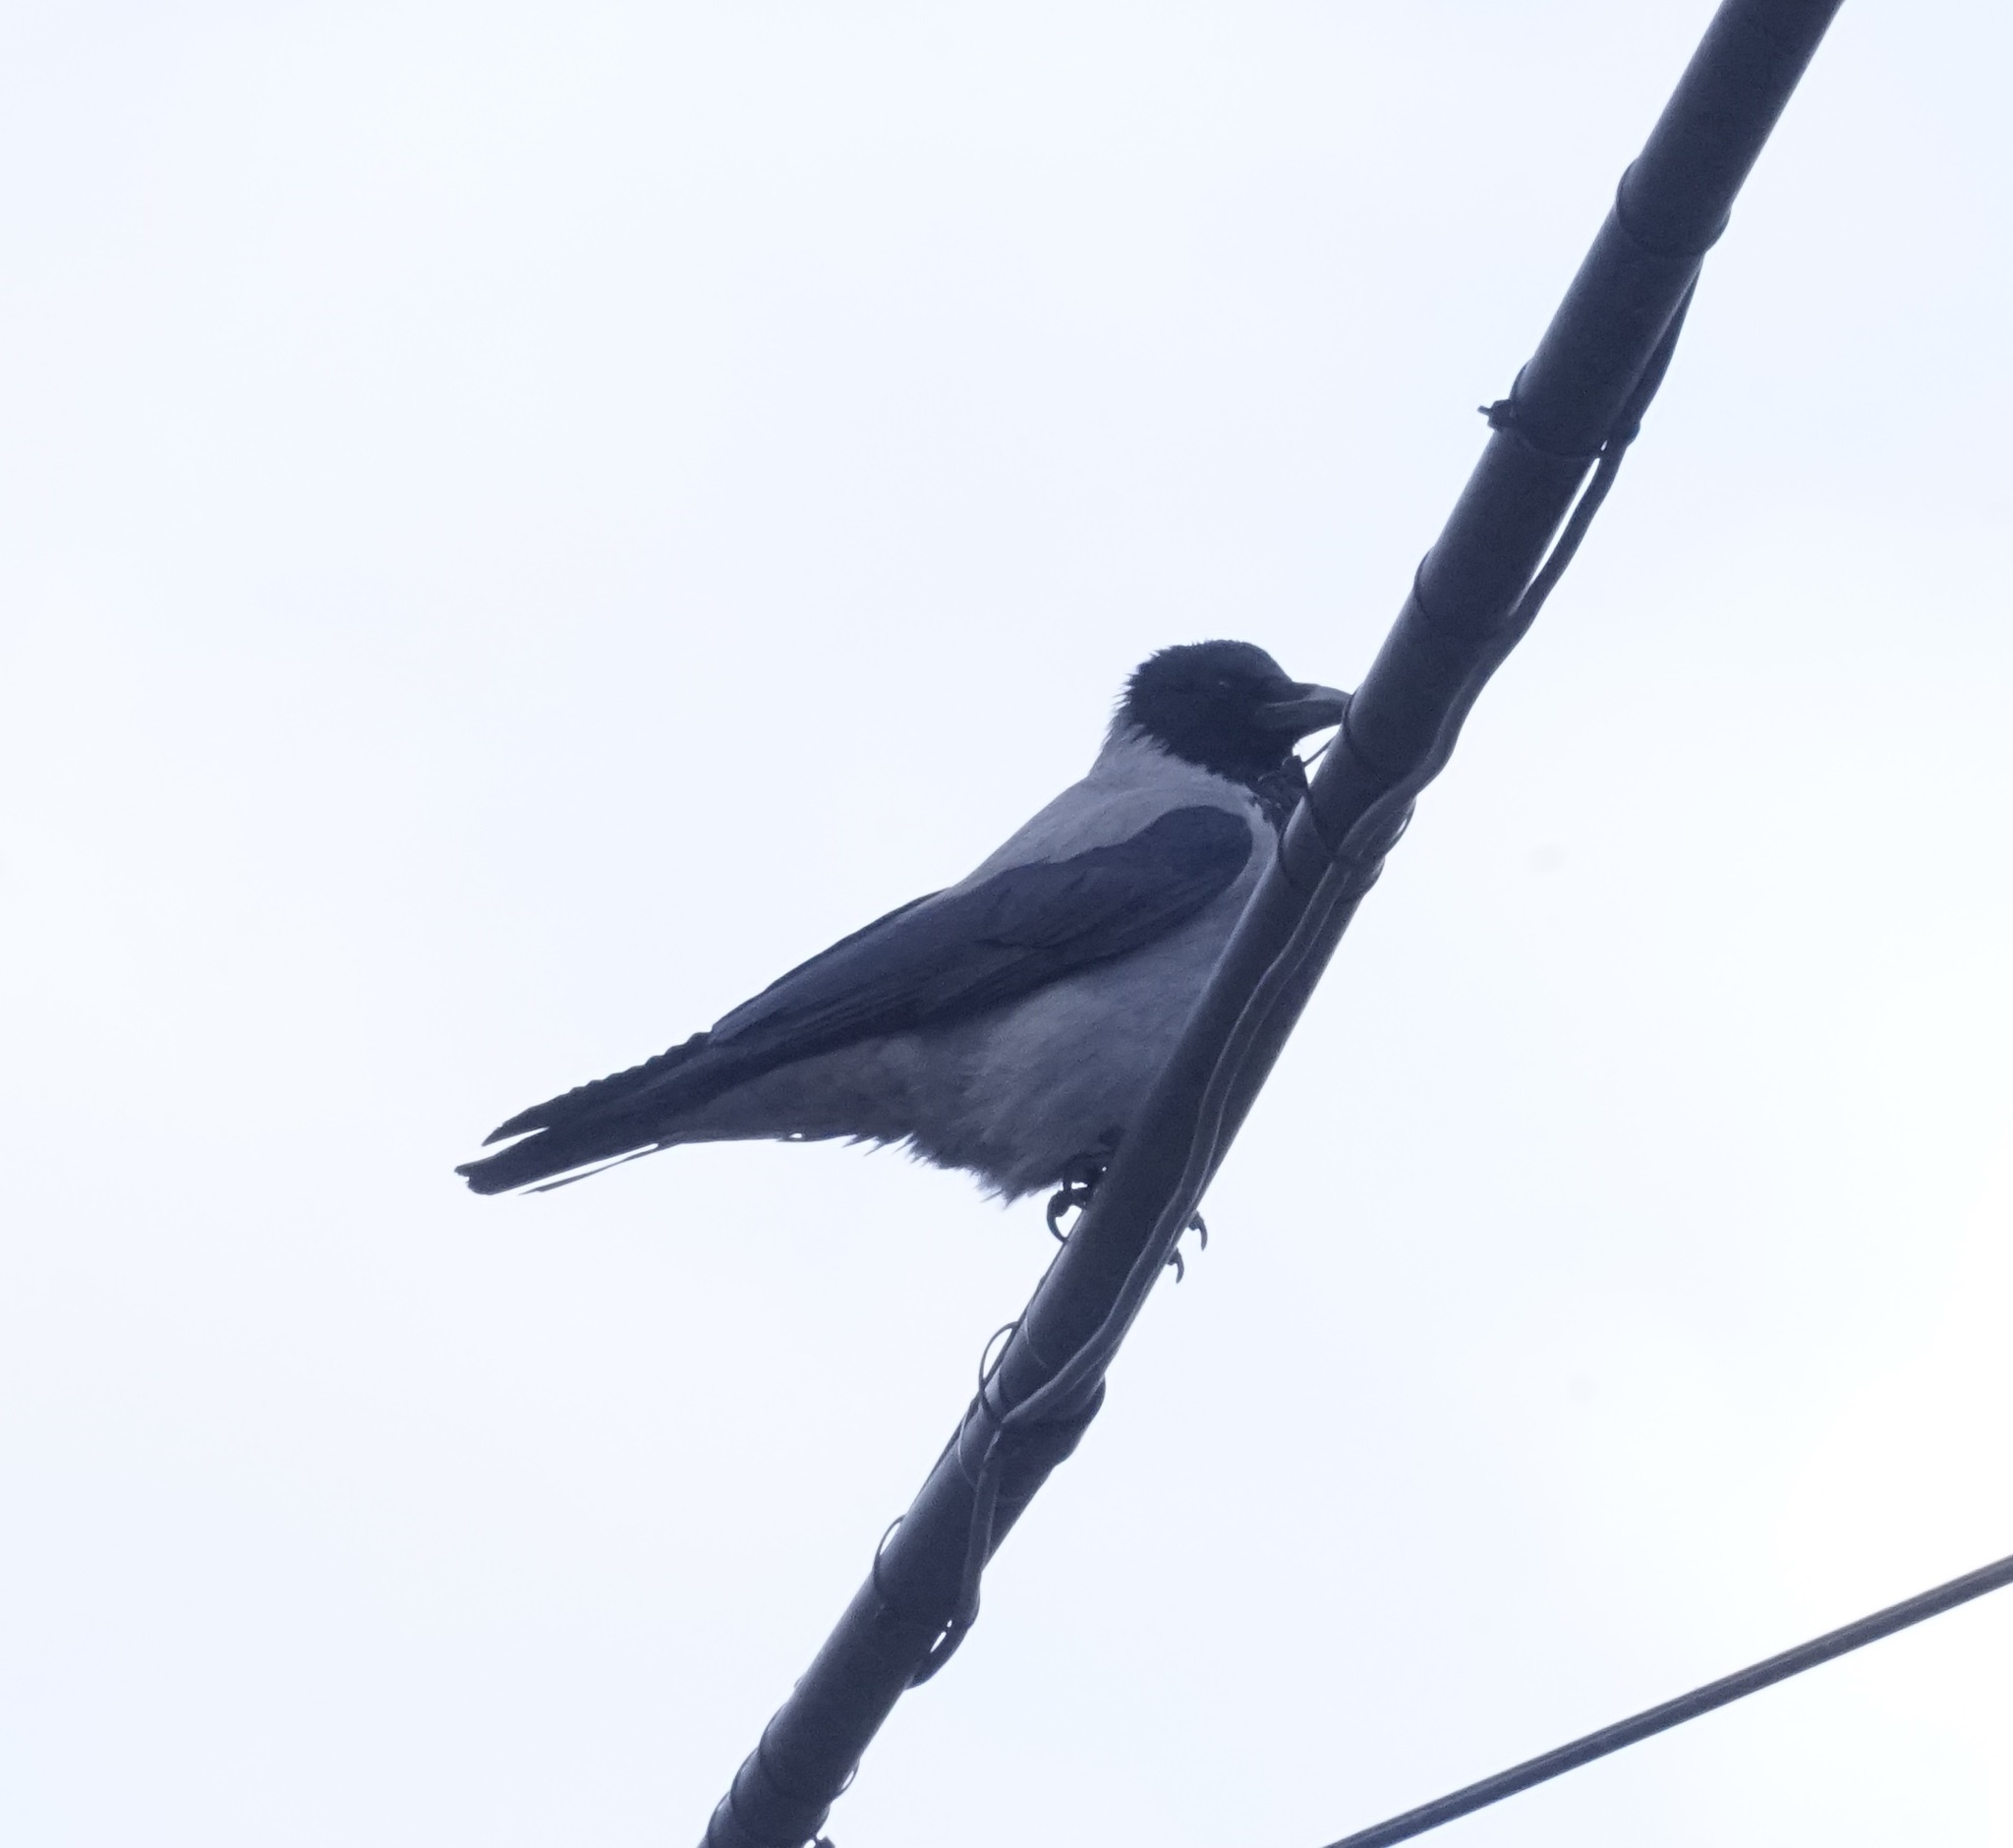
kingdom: Animalia
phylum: Chordata
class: Aves
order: Passeriformes
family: Corvidae
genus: Corvus
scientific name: Corvus cornix
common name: Hooded crow
